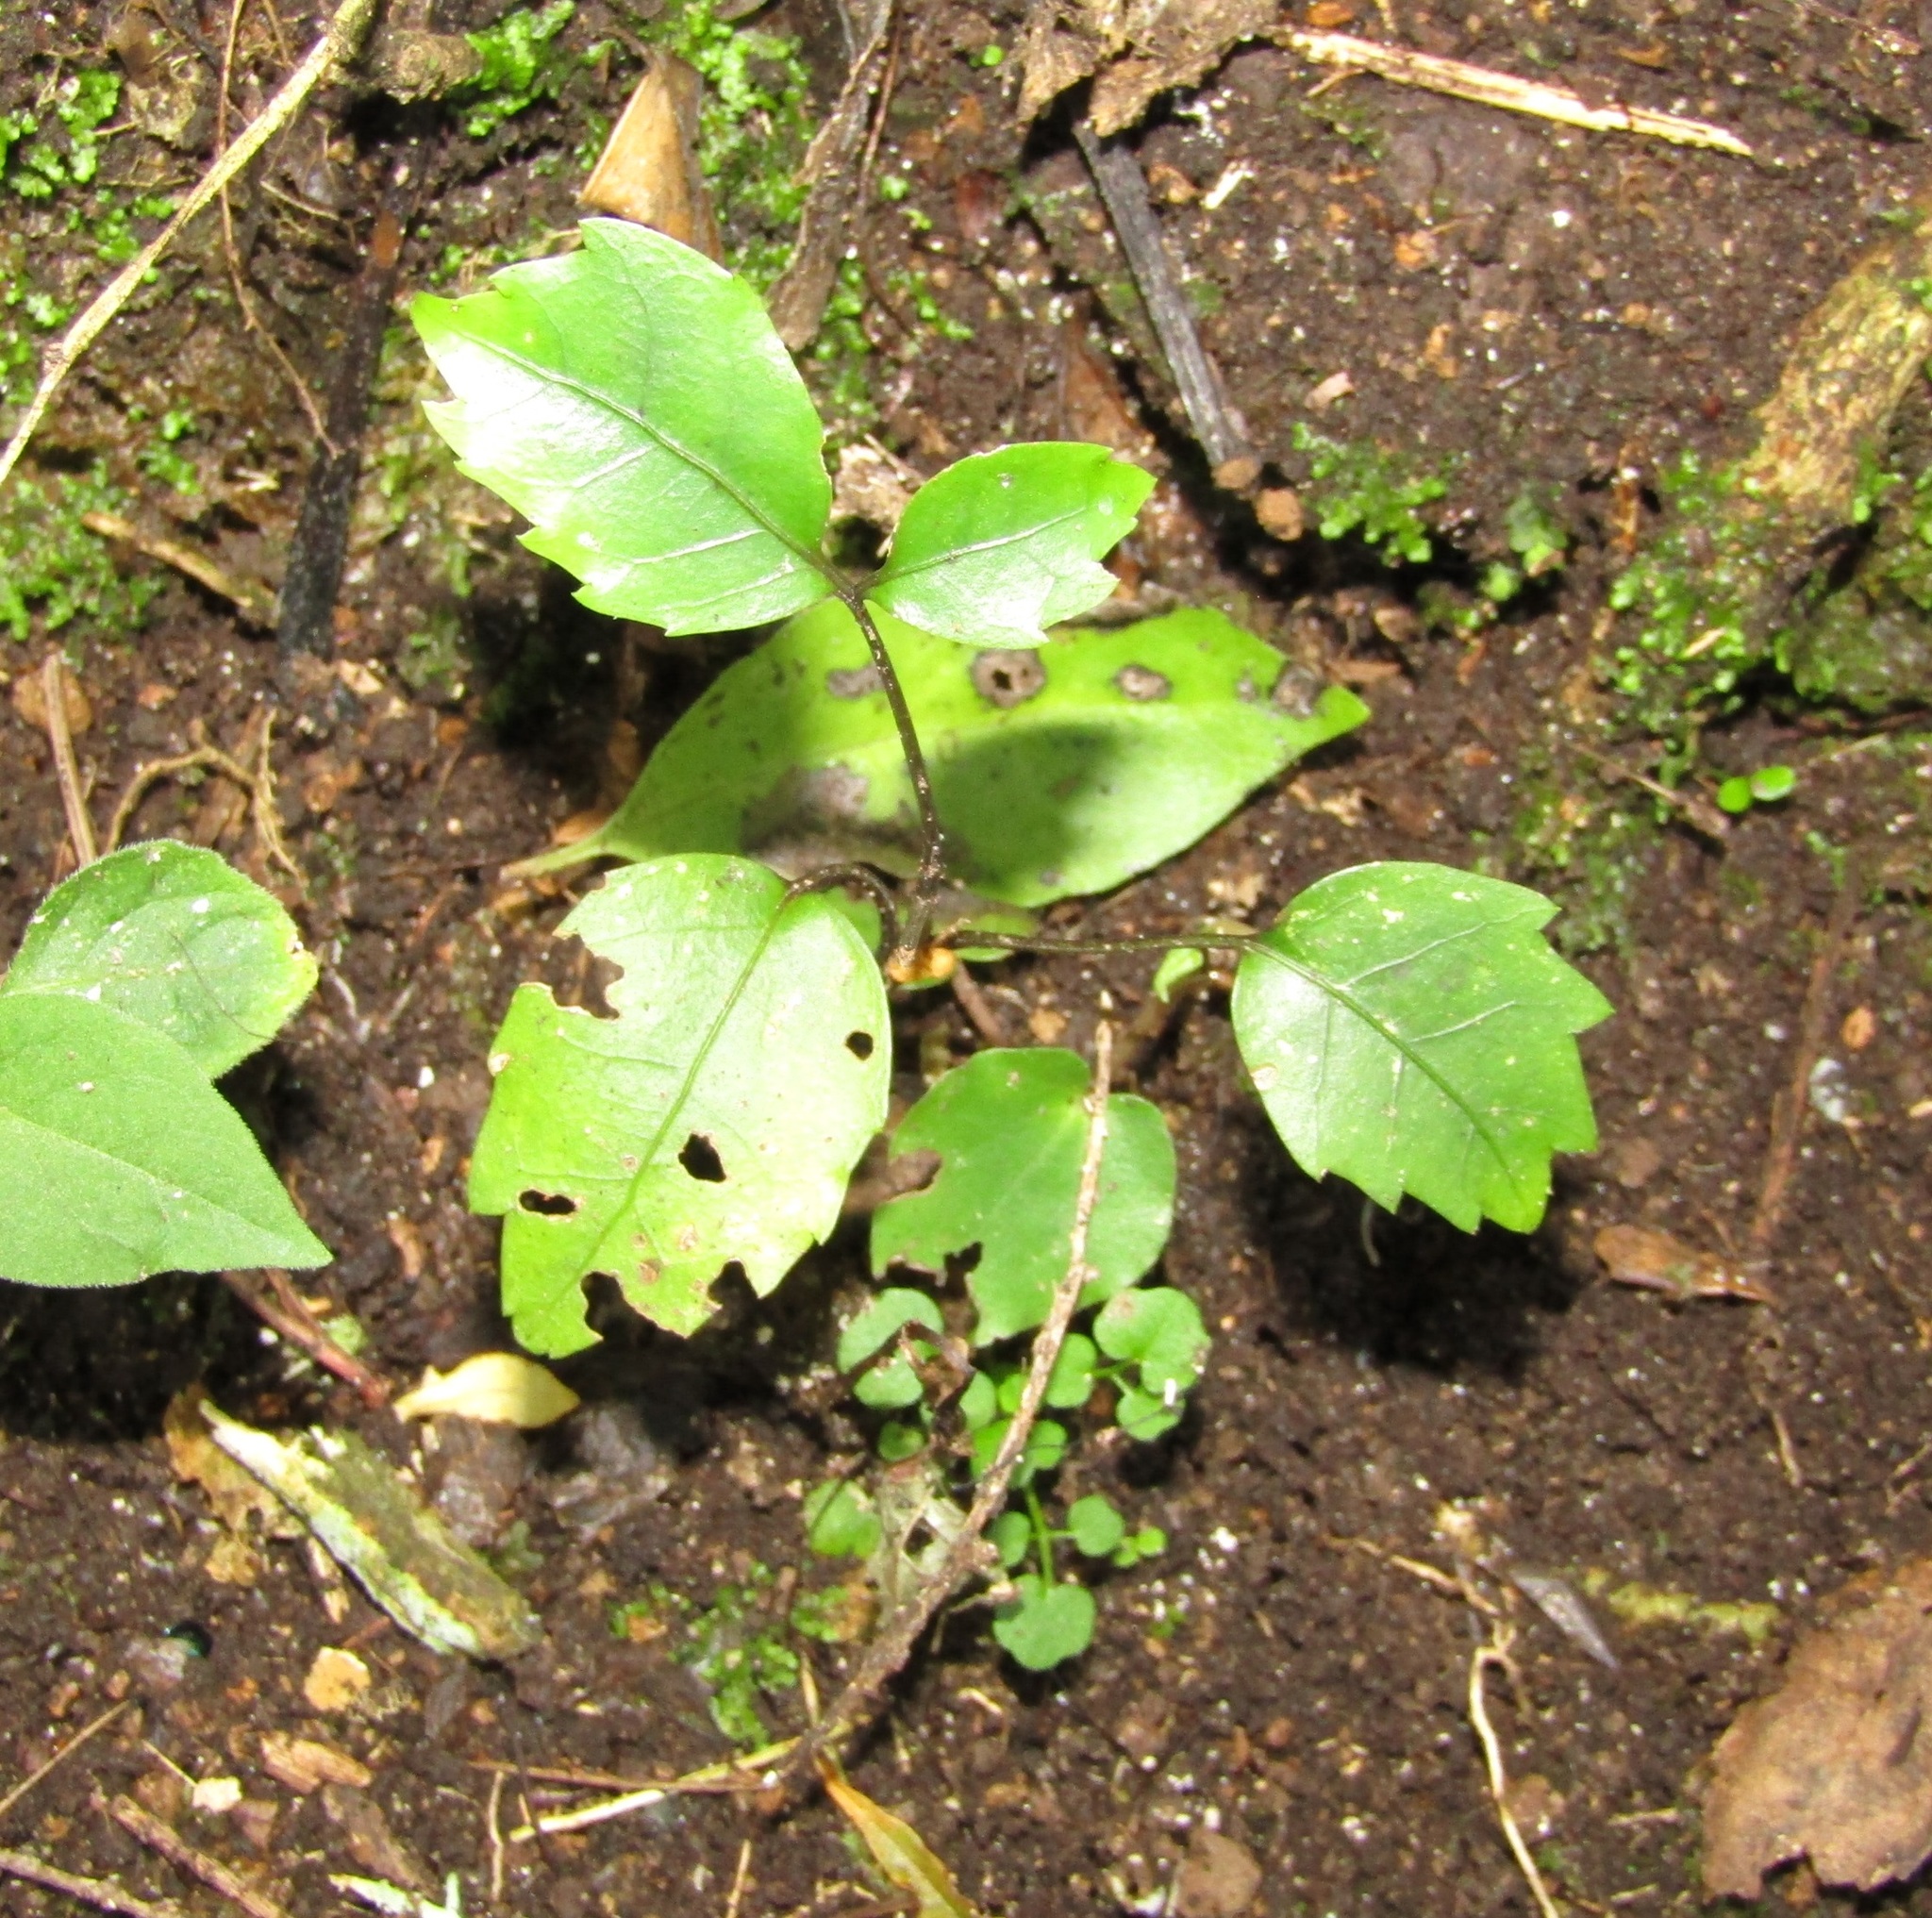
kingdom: Plantae
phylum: Tracheophyta
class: Magnoliopsida
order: Apiales
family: Araliaceae
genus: Neopanax
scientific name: Neopanax arboreus
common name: Five-fingers
